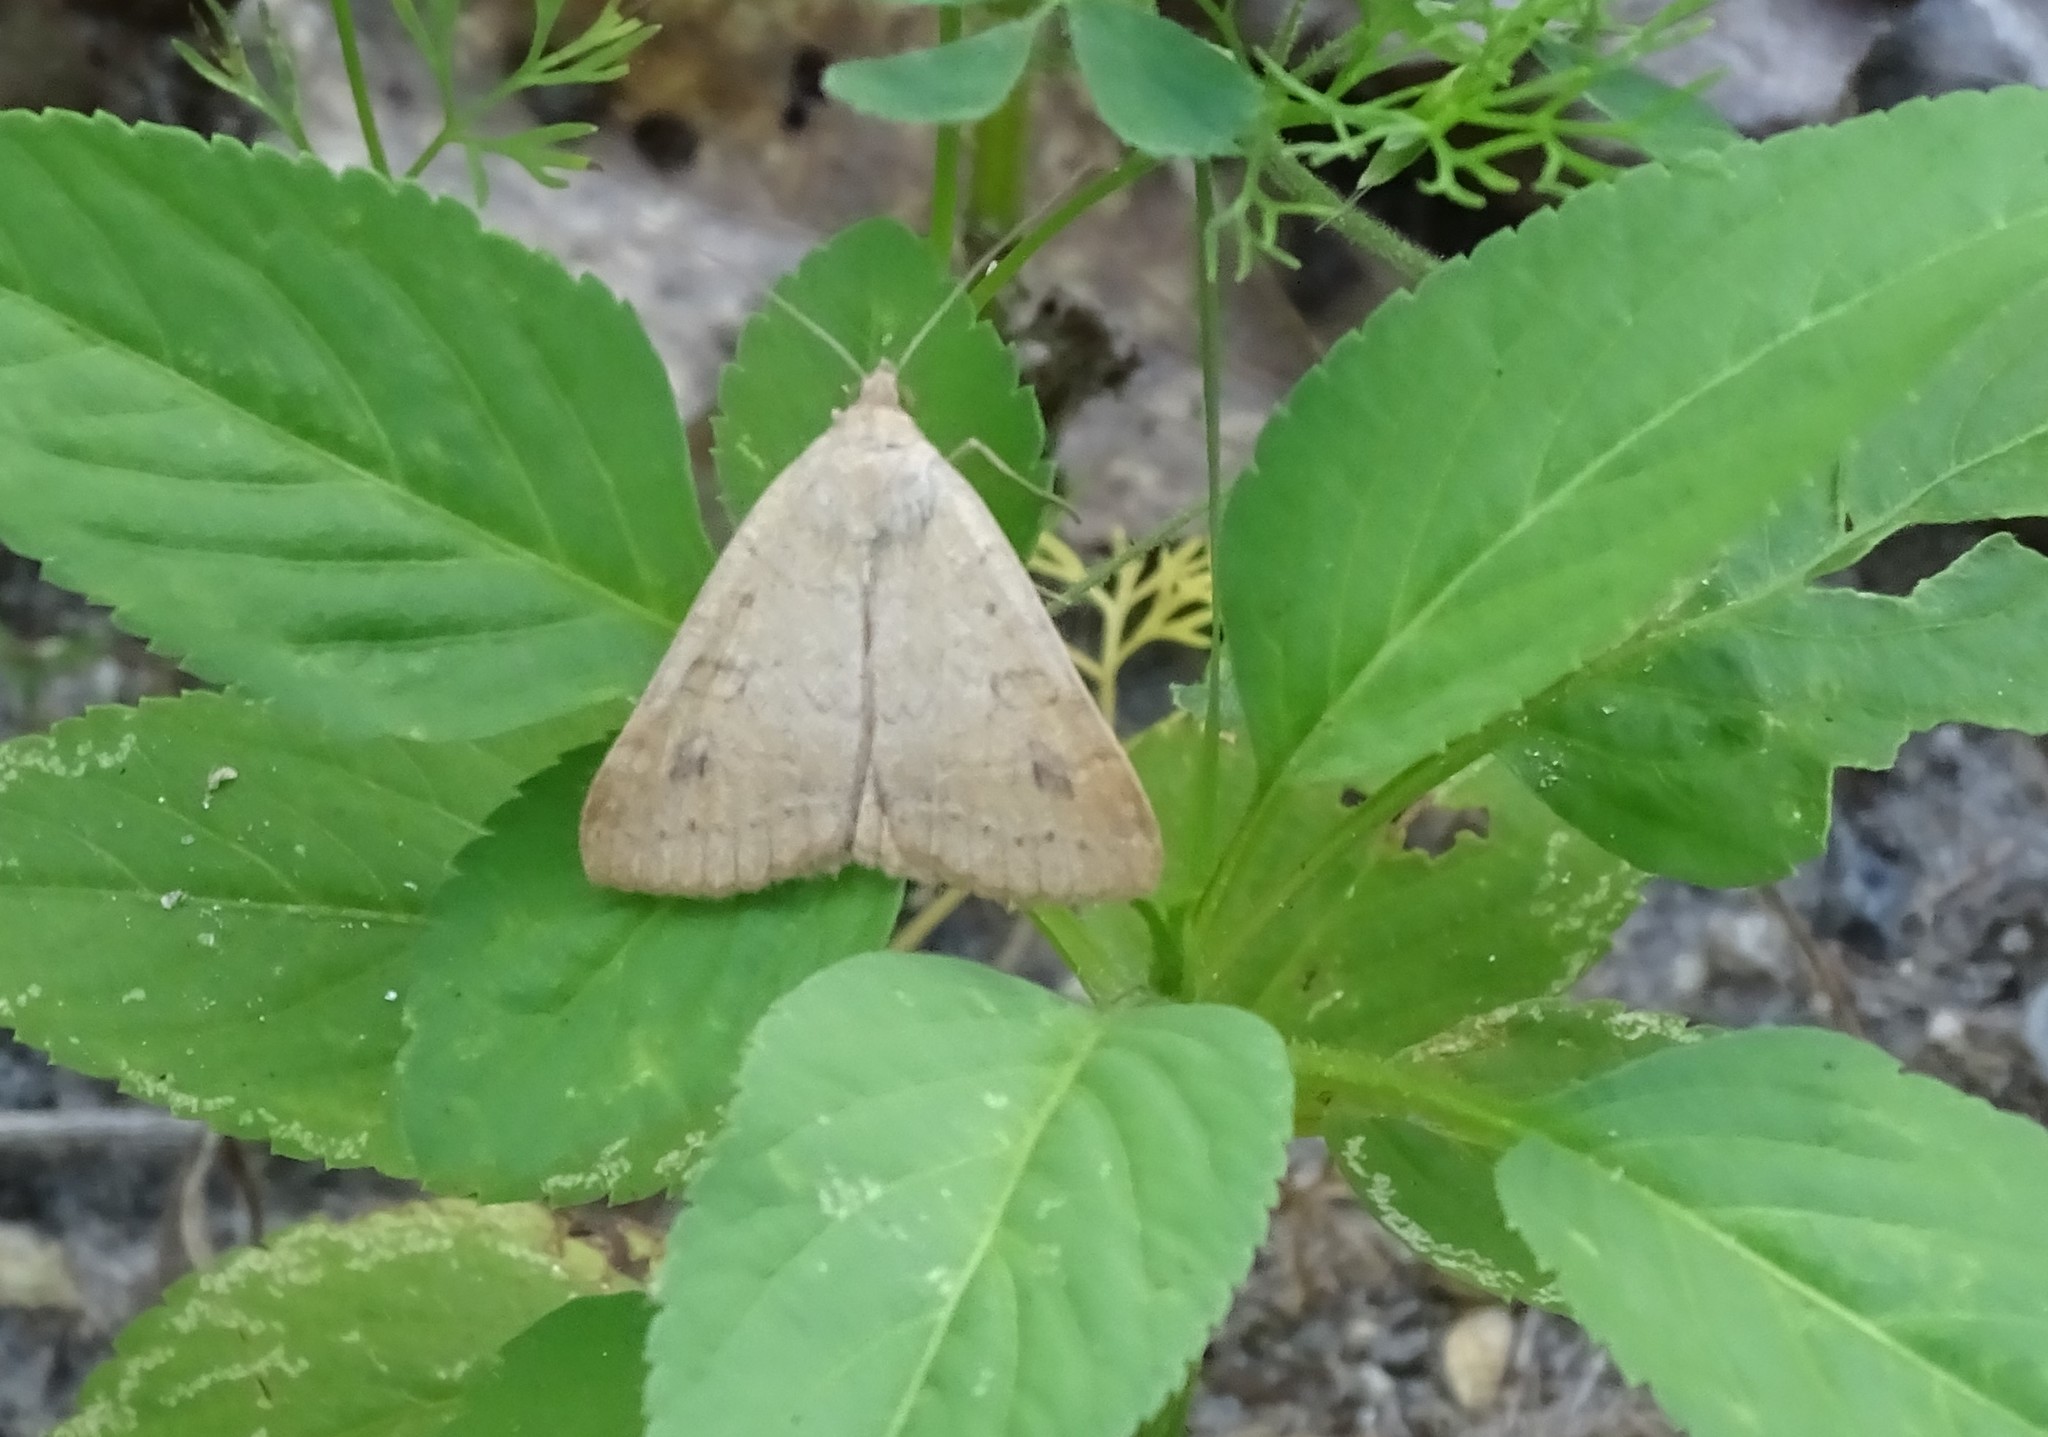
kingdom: Animalia
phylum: Arthropoda
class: Insecta
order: Lepidoptera
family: Erebidae
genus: Caenurgia
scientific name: Caenurgia chloropha
